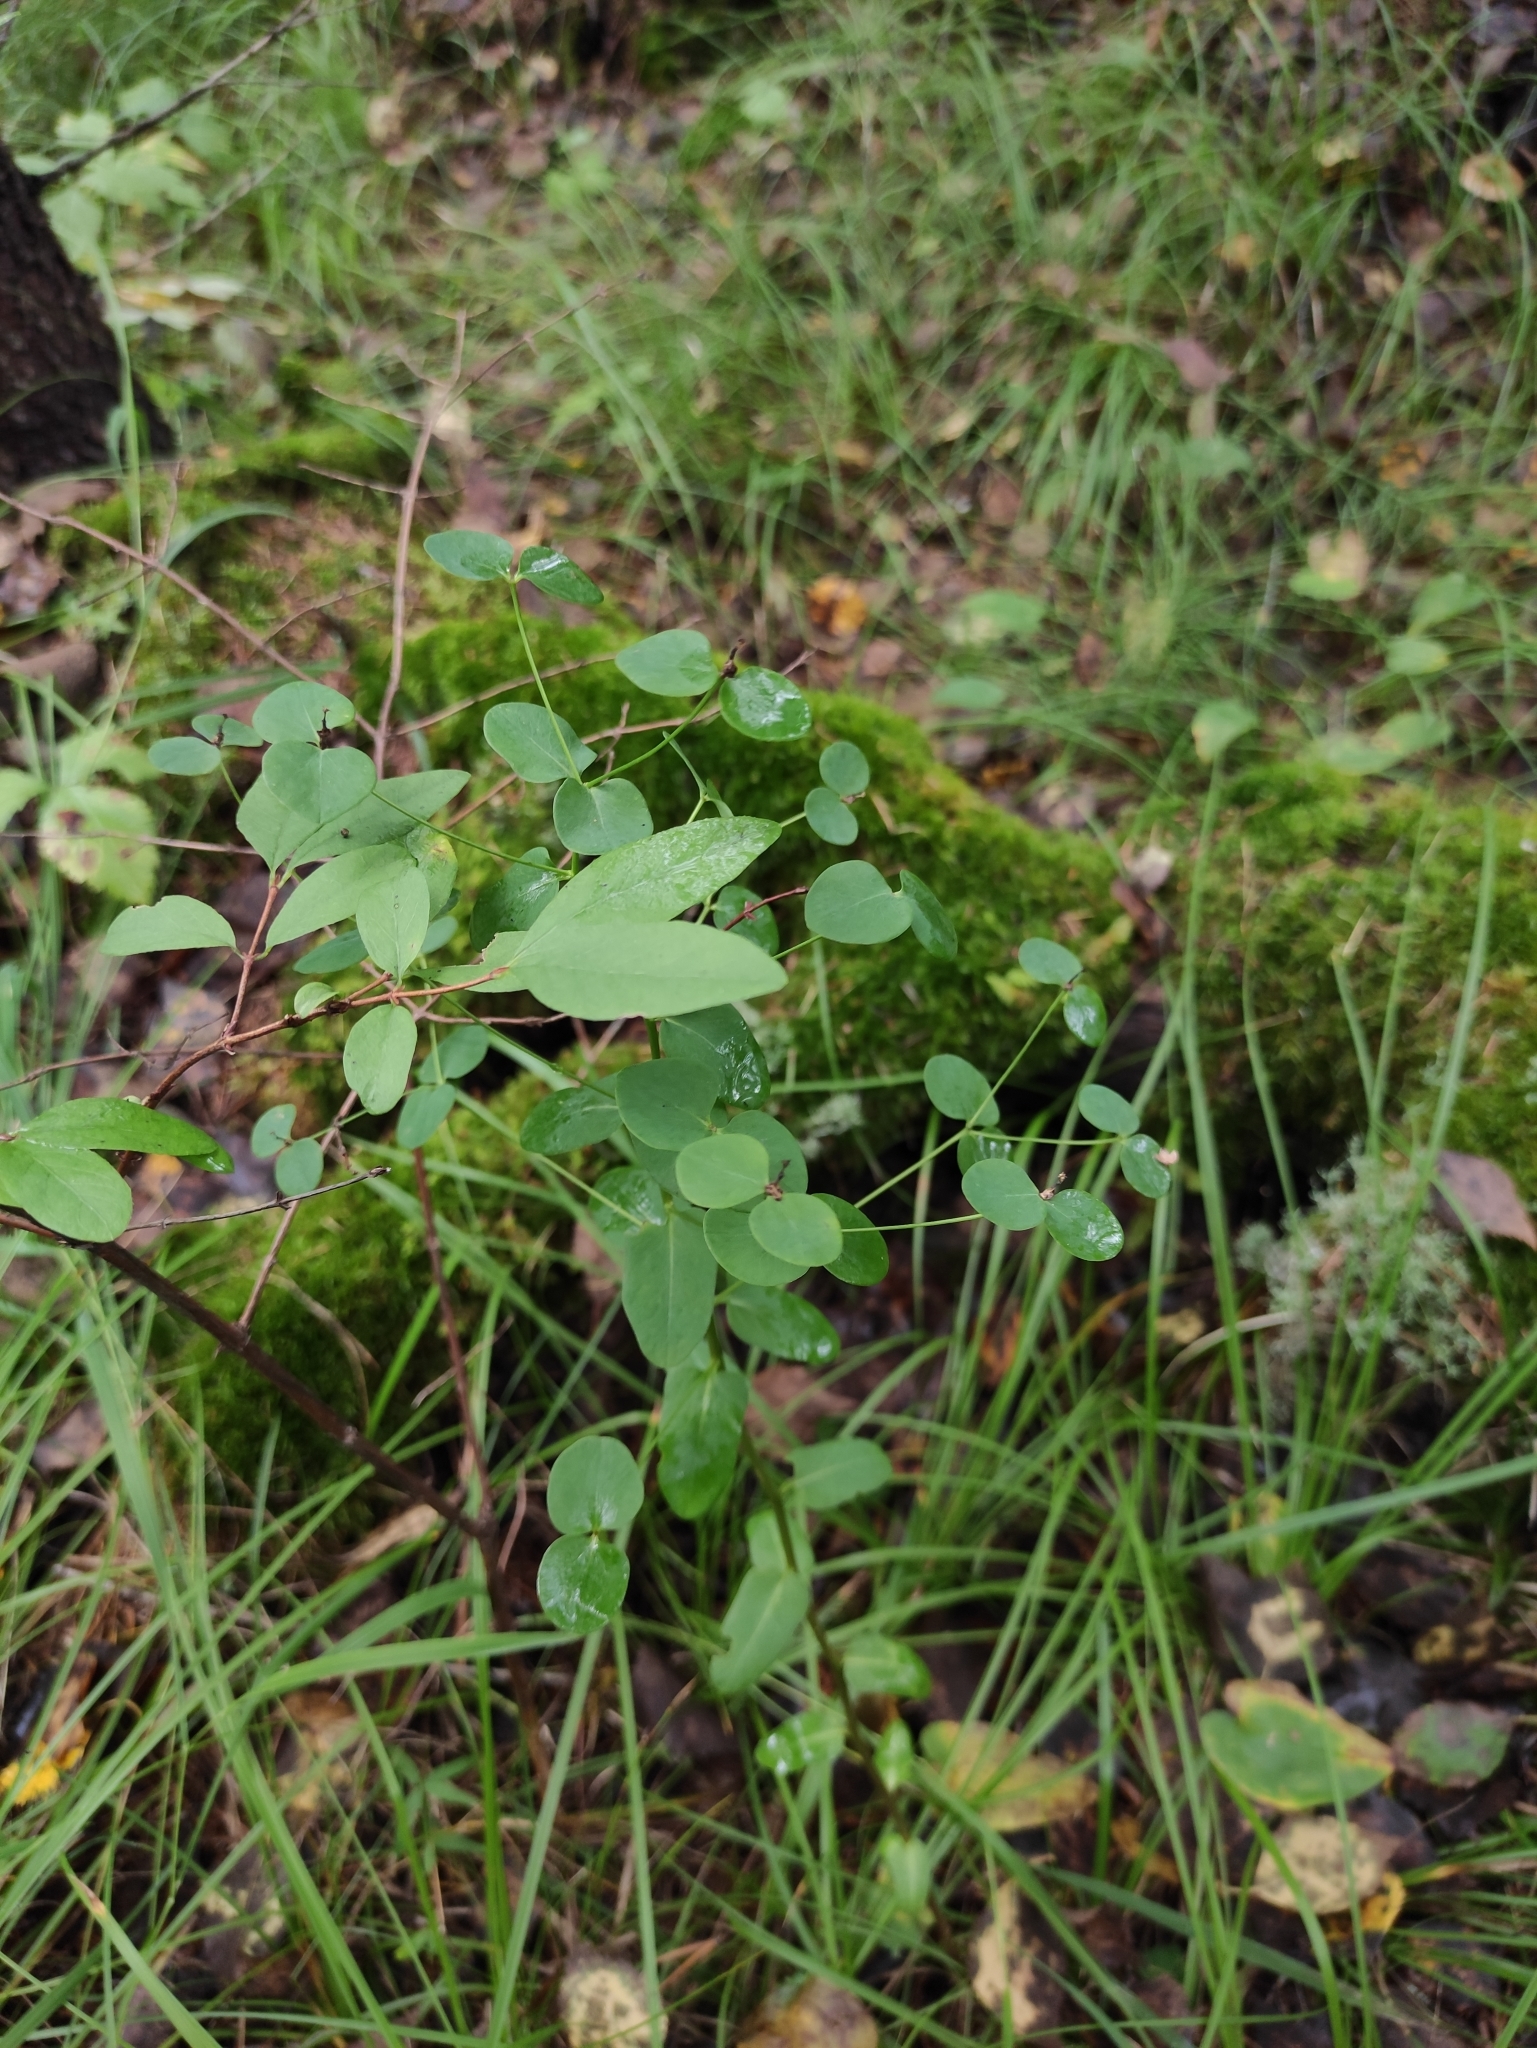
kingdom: Plantae
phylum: Tracheophyta
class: Magnoliopsida
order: Malpighiales
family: Euphorbiaceae
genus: Euphorbia
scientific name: Euphorbia jenisseiensis
